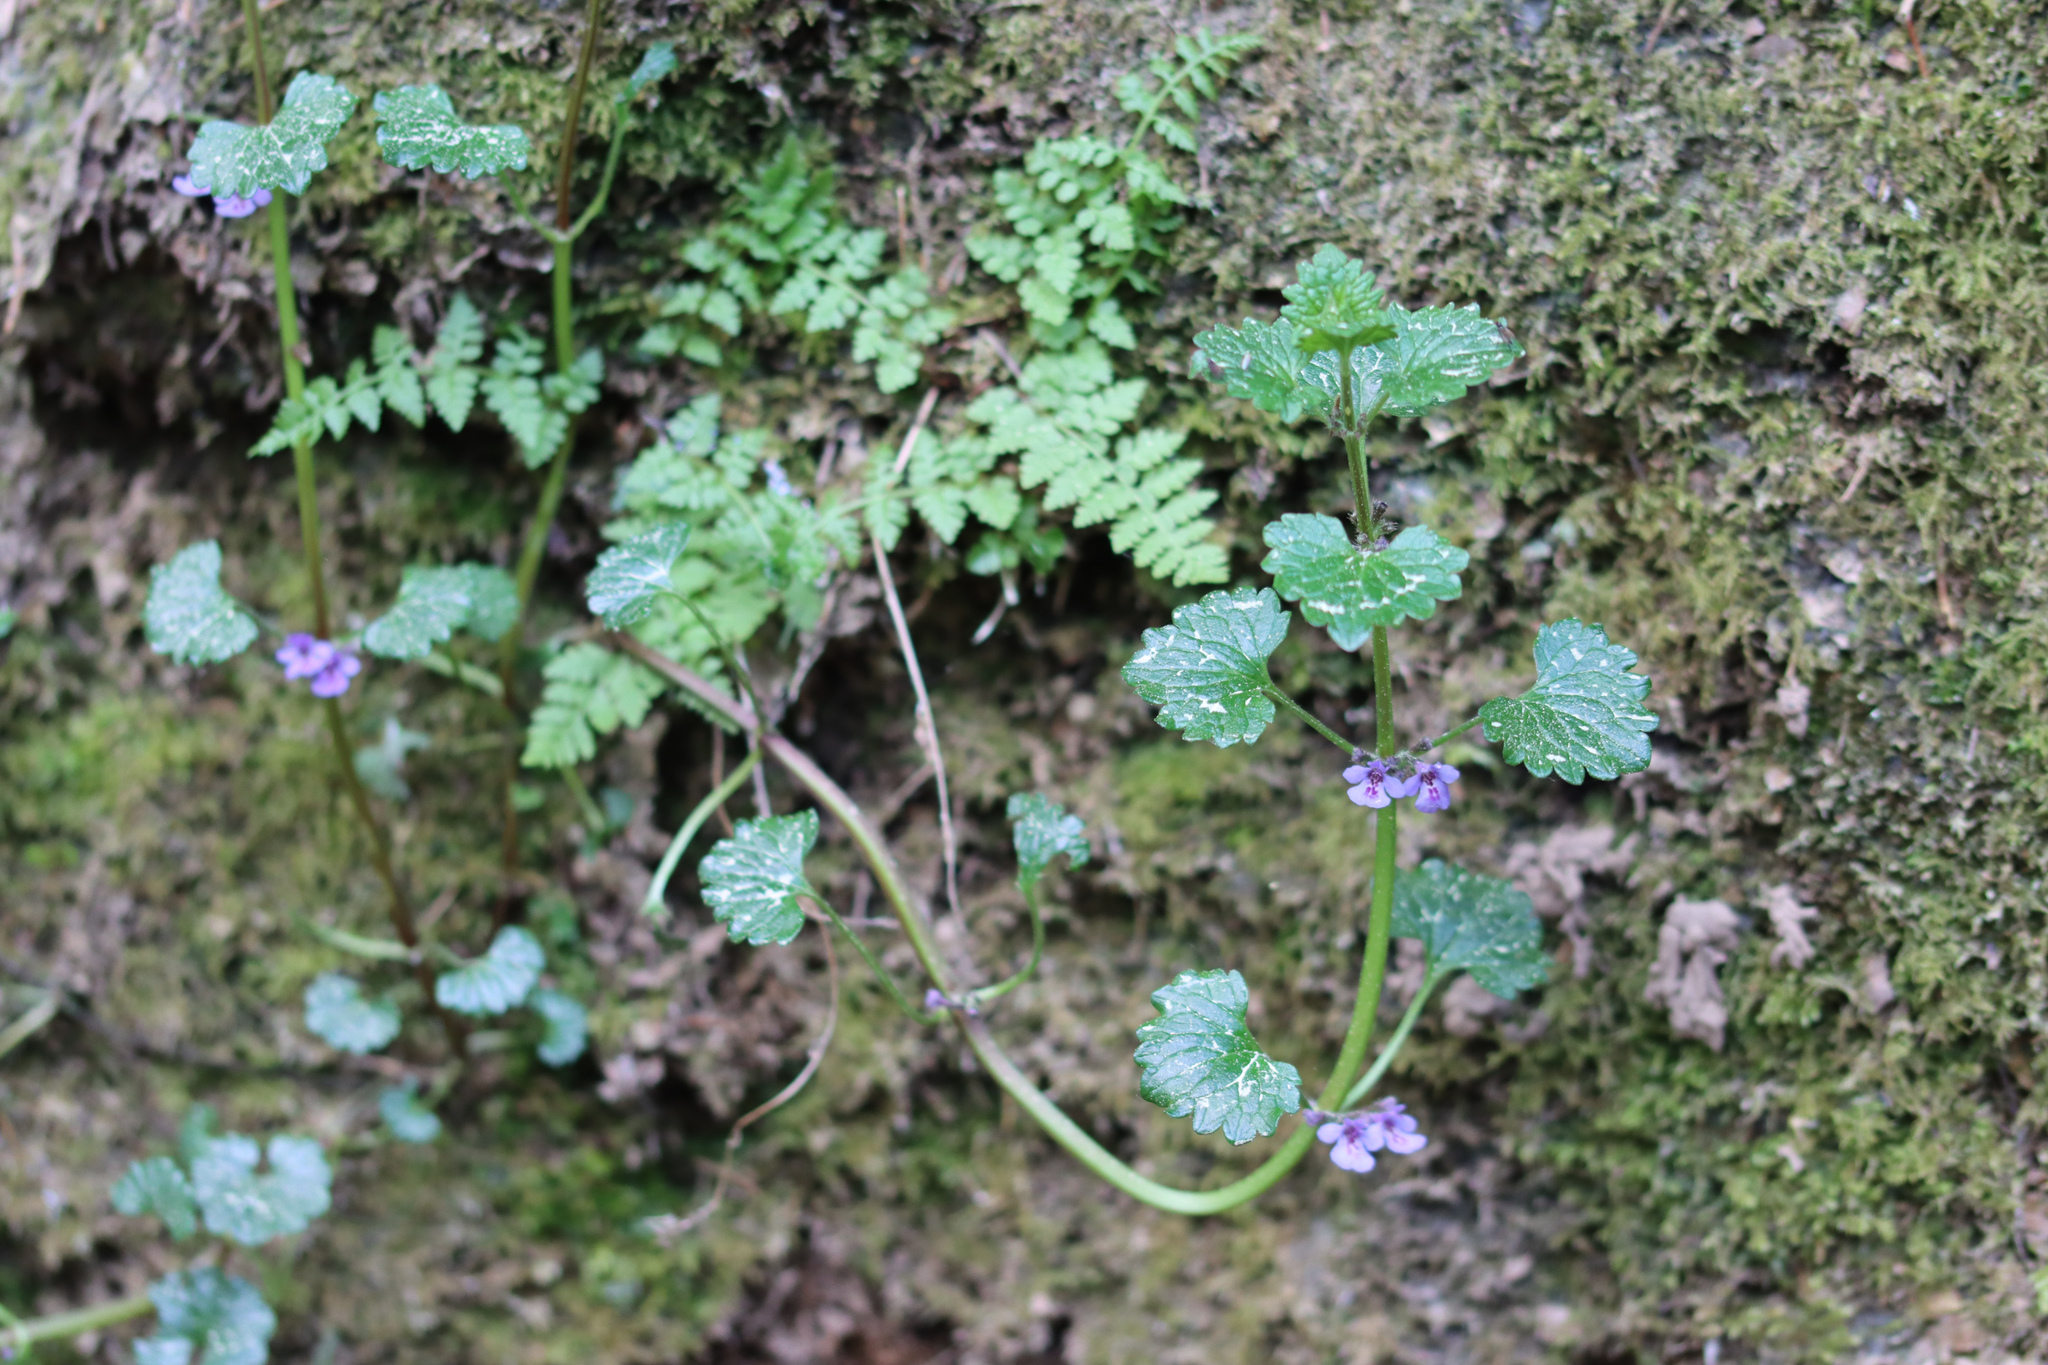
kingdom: Plantae
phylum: Tracheophyta
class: Magnoliopsida
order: Lamiales
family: Lamiaceae
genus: Glechoma
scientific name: Glechoma hederacea
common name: Ground ivy
